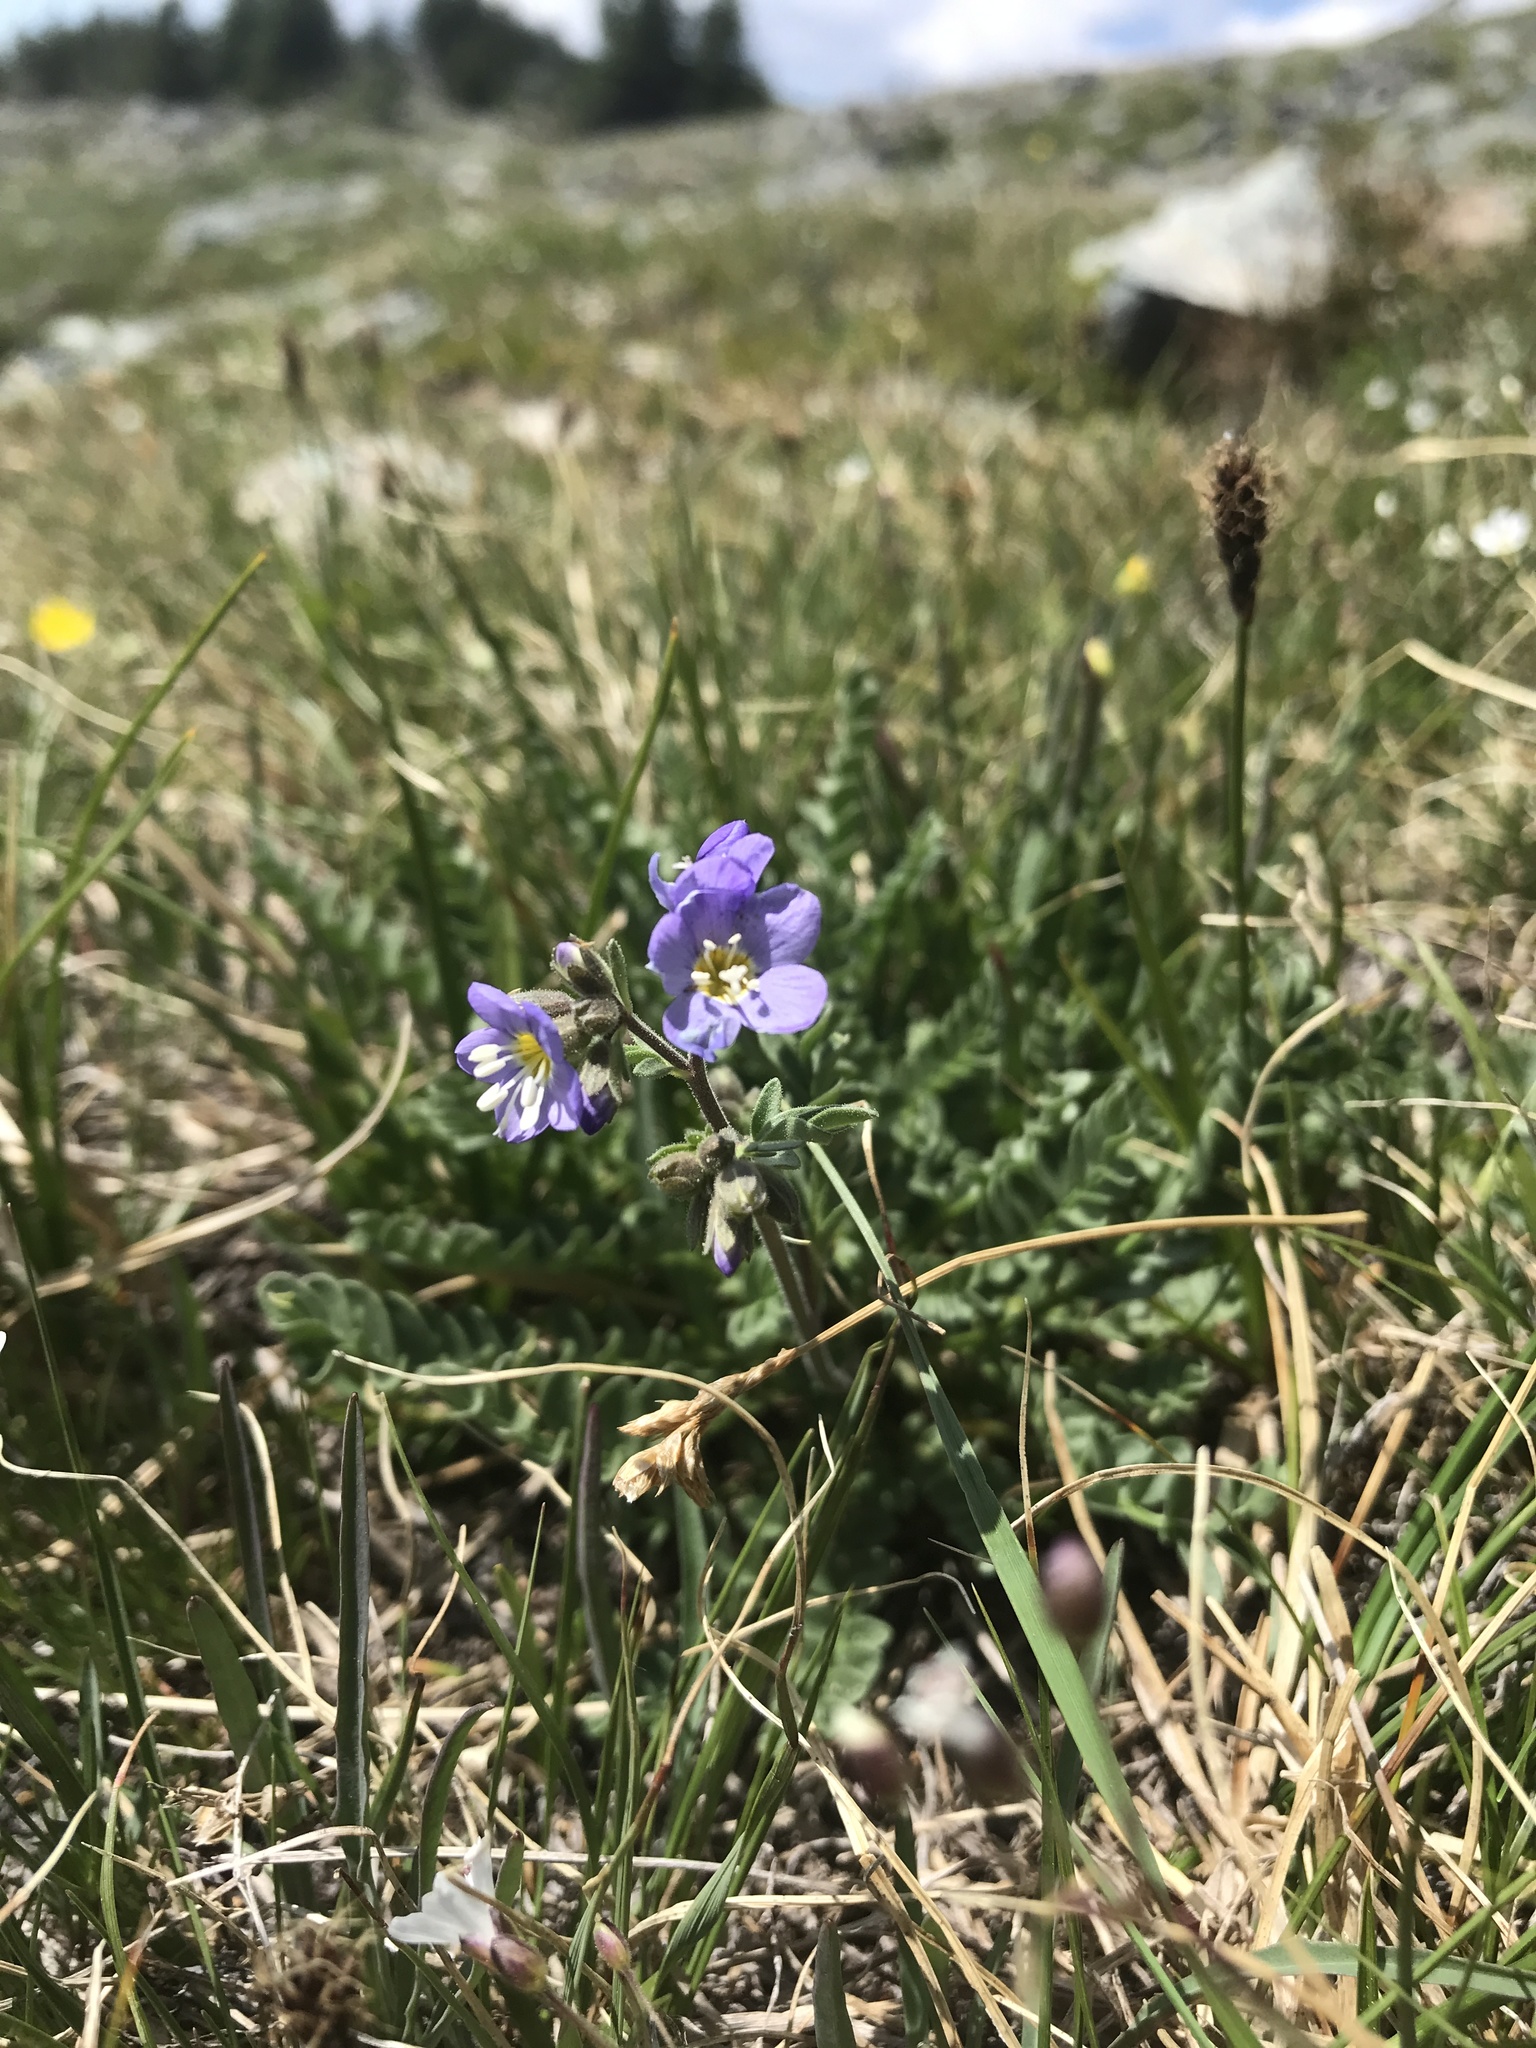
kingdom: Plantae
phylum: Tracheophyta
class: Magnoliopsida
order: Ericales
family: Polemoniaceae
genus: Polemonium
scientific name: Polemonium pulcherrimum
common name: Short jacob's-ladder
